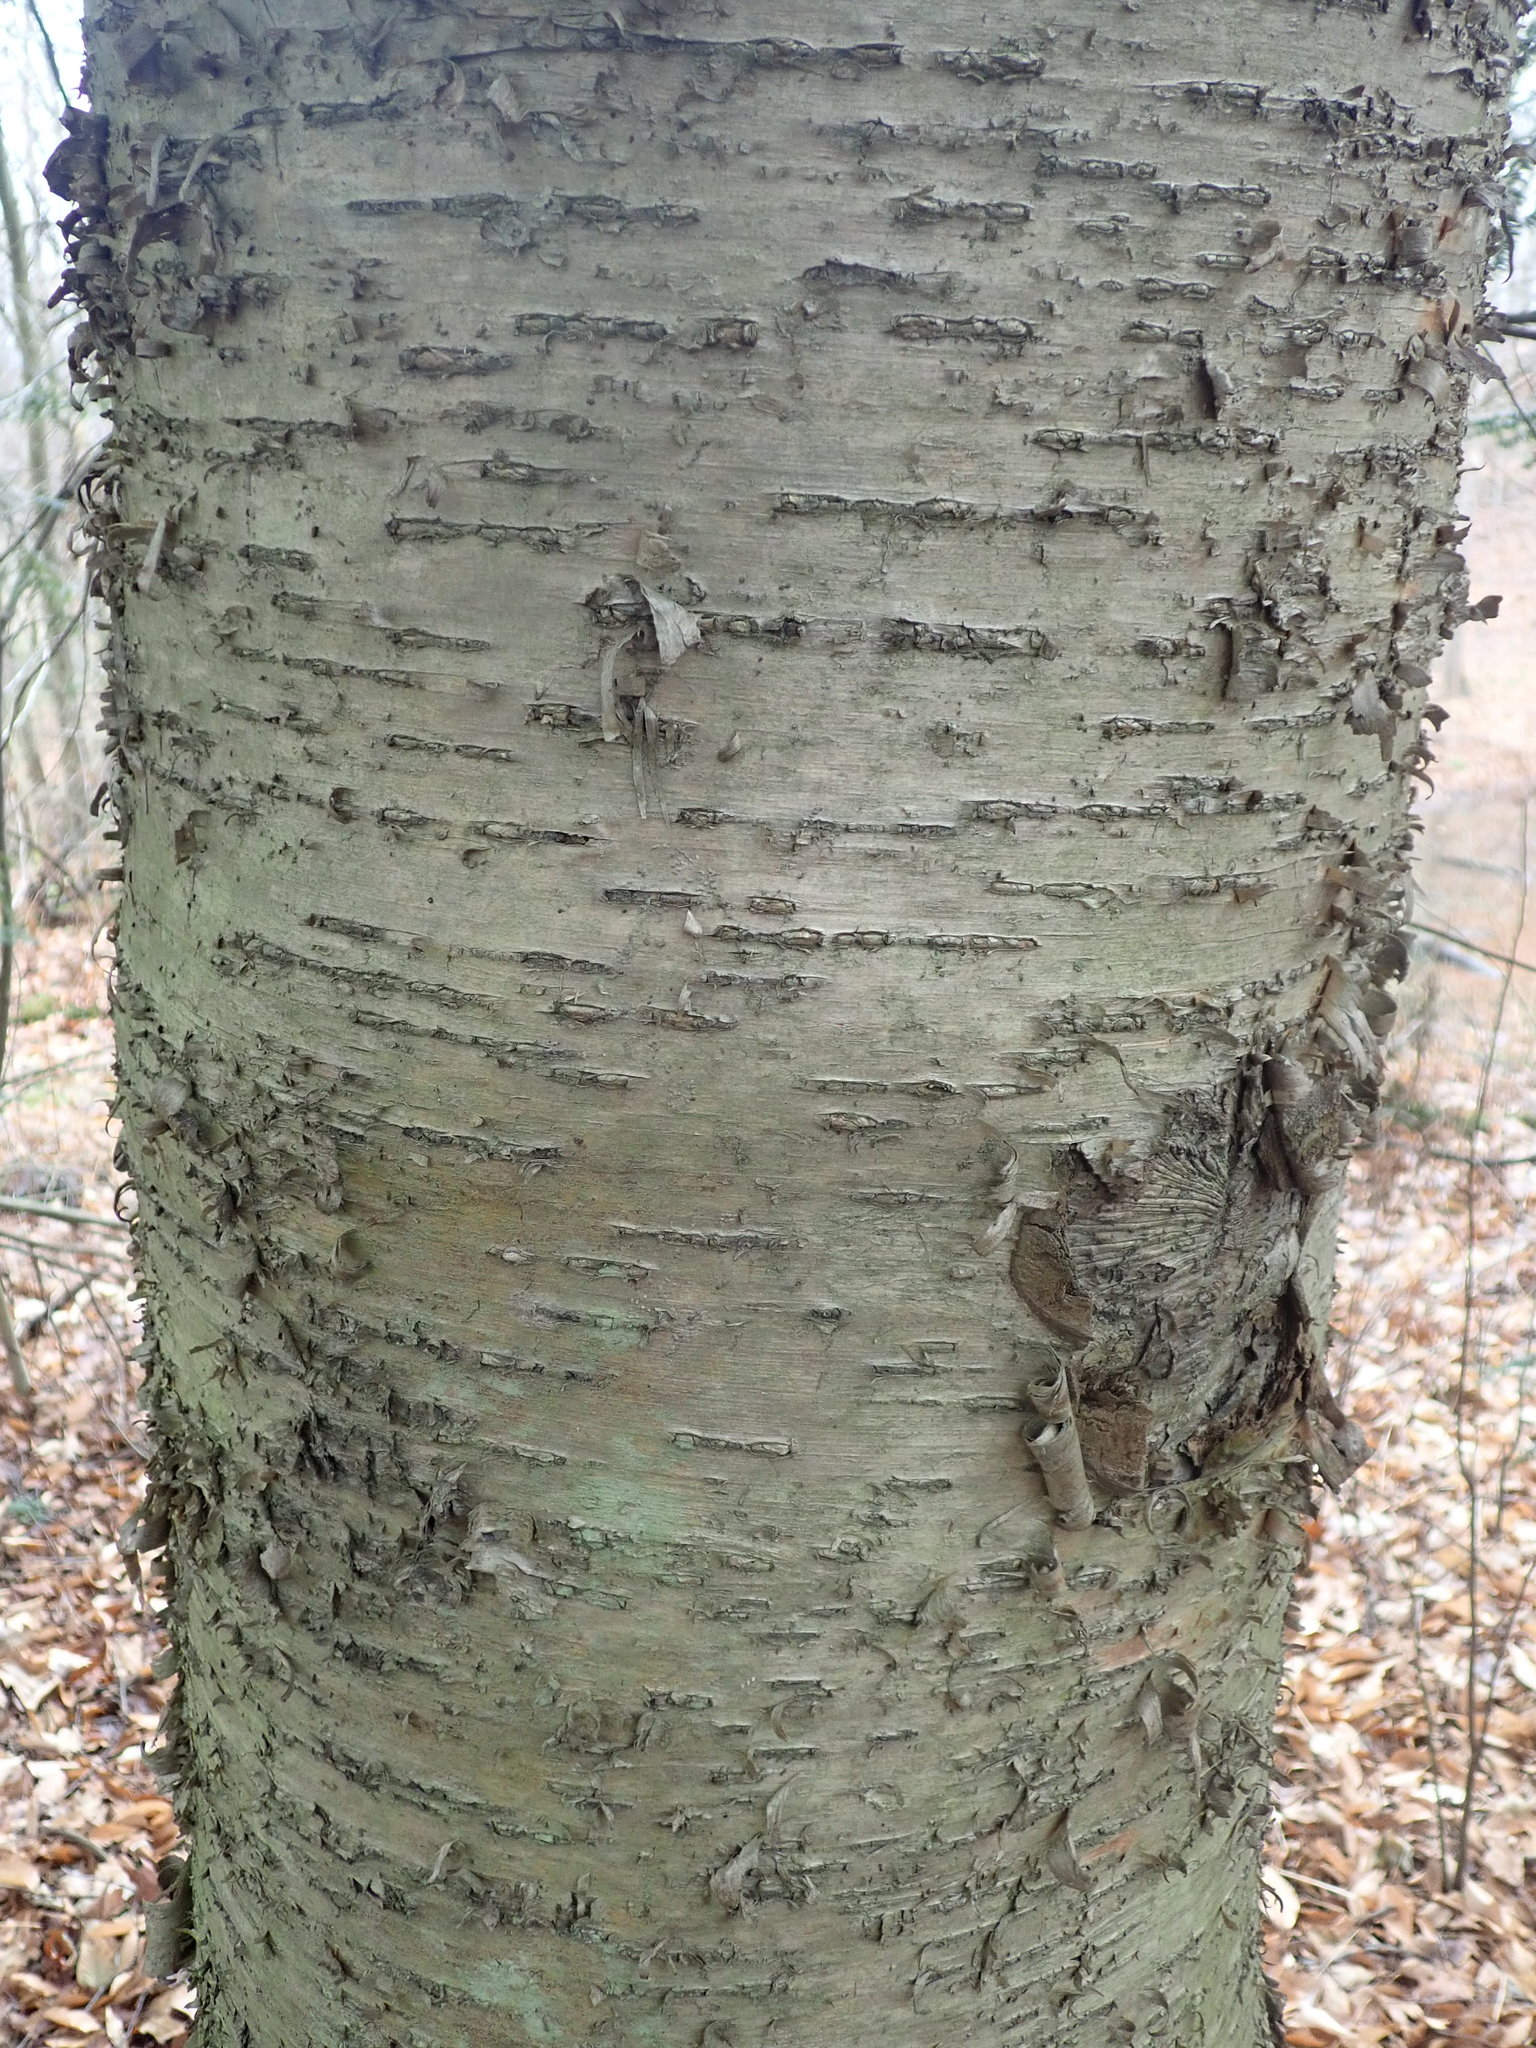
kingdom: Plantae
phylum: Tracheophyta
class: Magnoliopsida
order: Fagales
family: Betulaceae
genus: Betula
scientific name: Betula alleghaniensis
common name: Yellow birch
